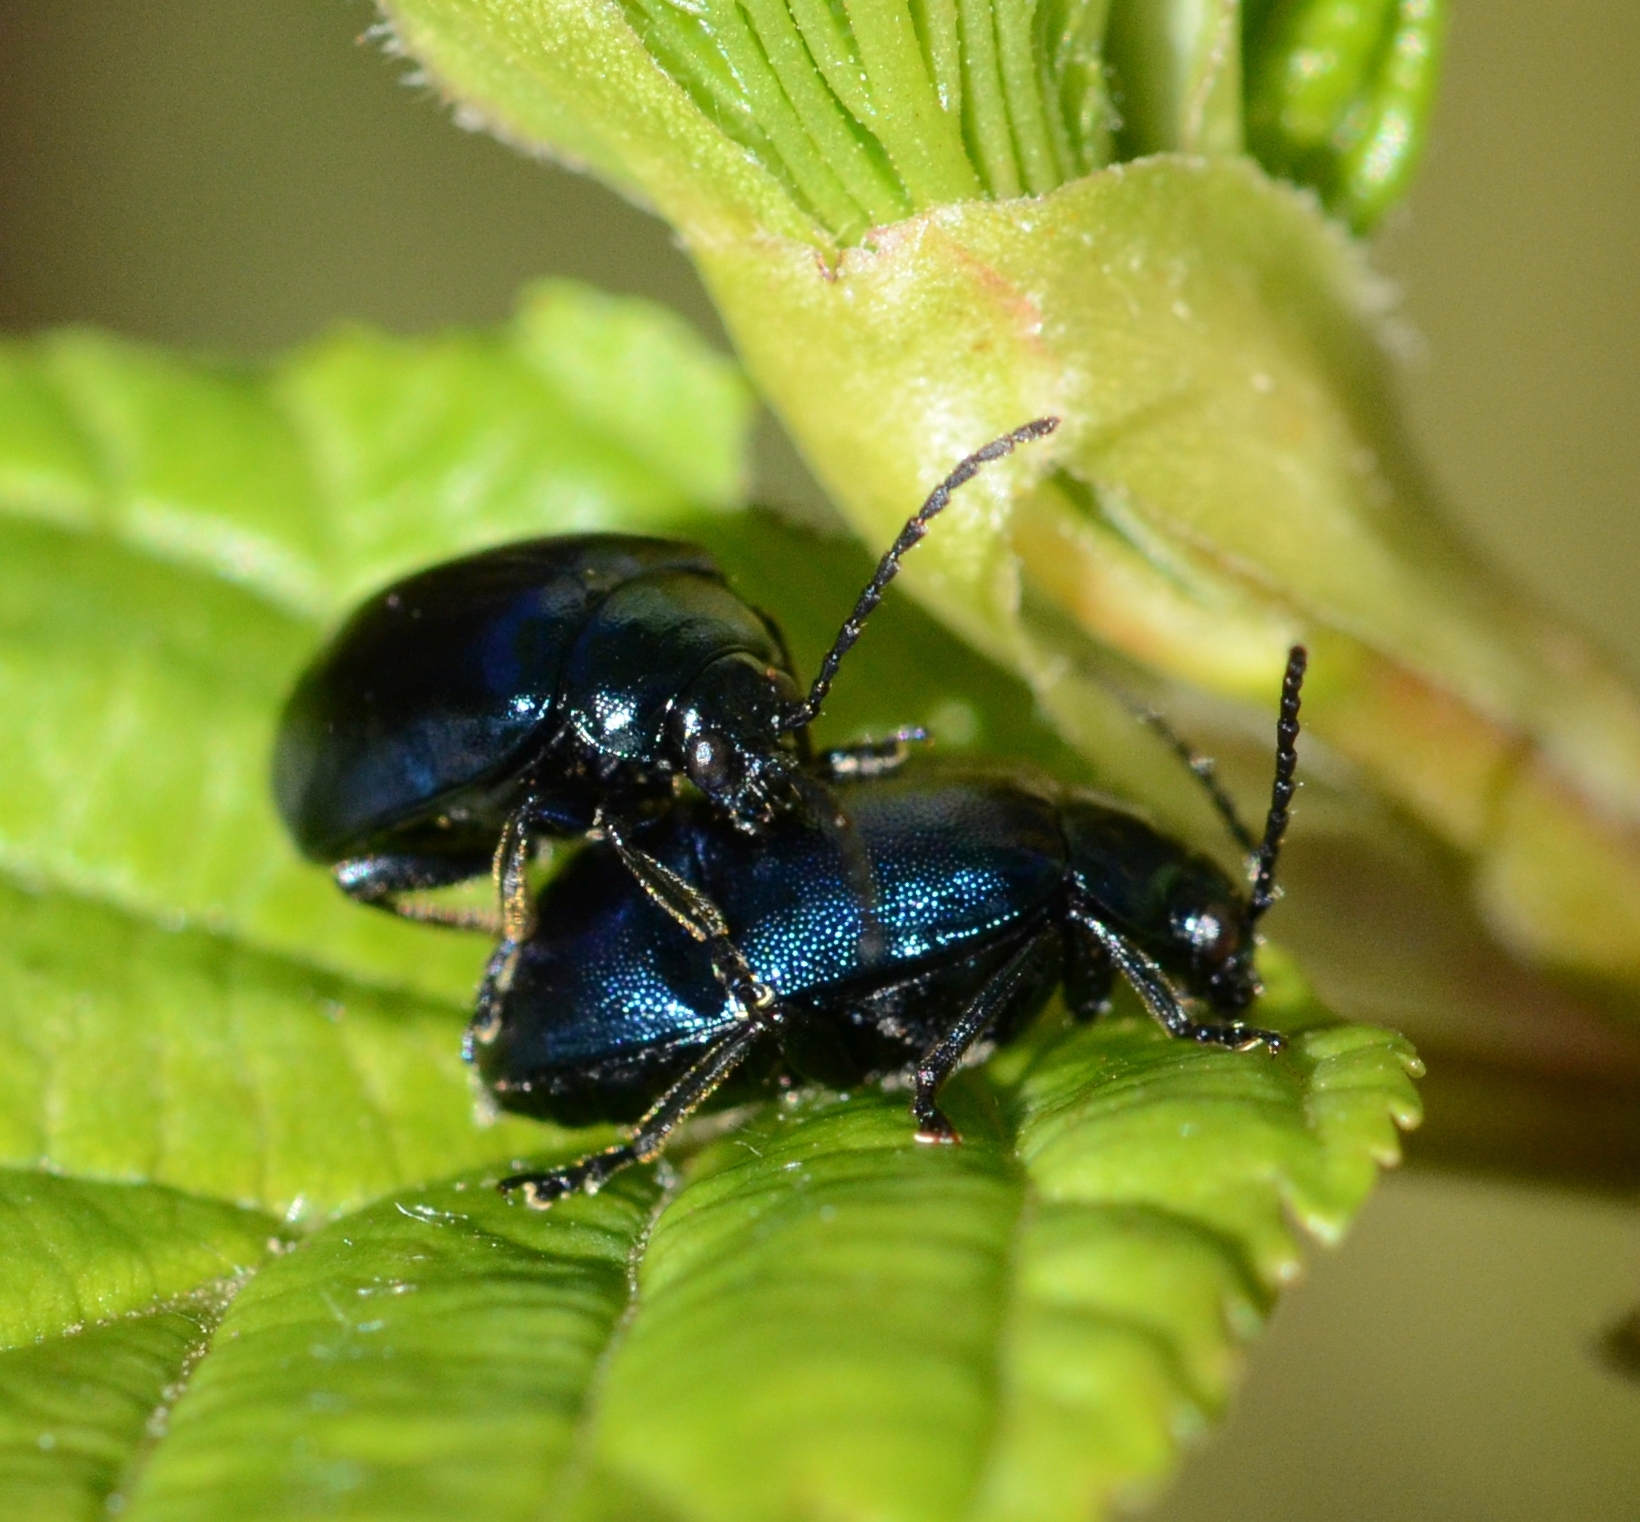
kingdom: Animalia
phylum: Arthropoda
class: Insecta
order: Coleoptera
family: Chrysomelidae
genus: Agelastica
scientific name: Agelastica alni
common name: Alder leaf beetle
